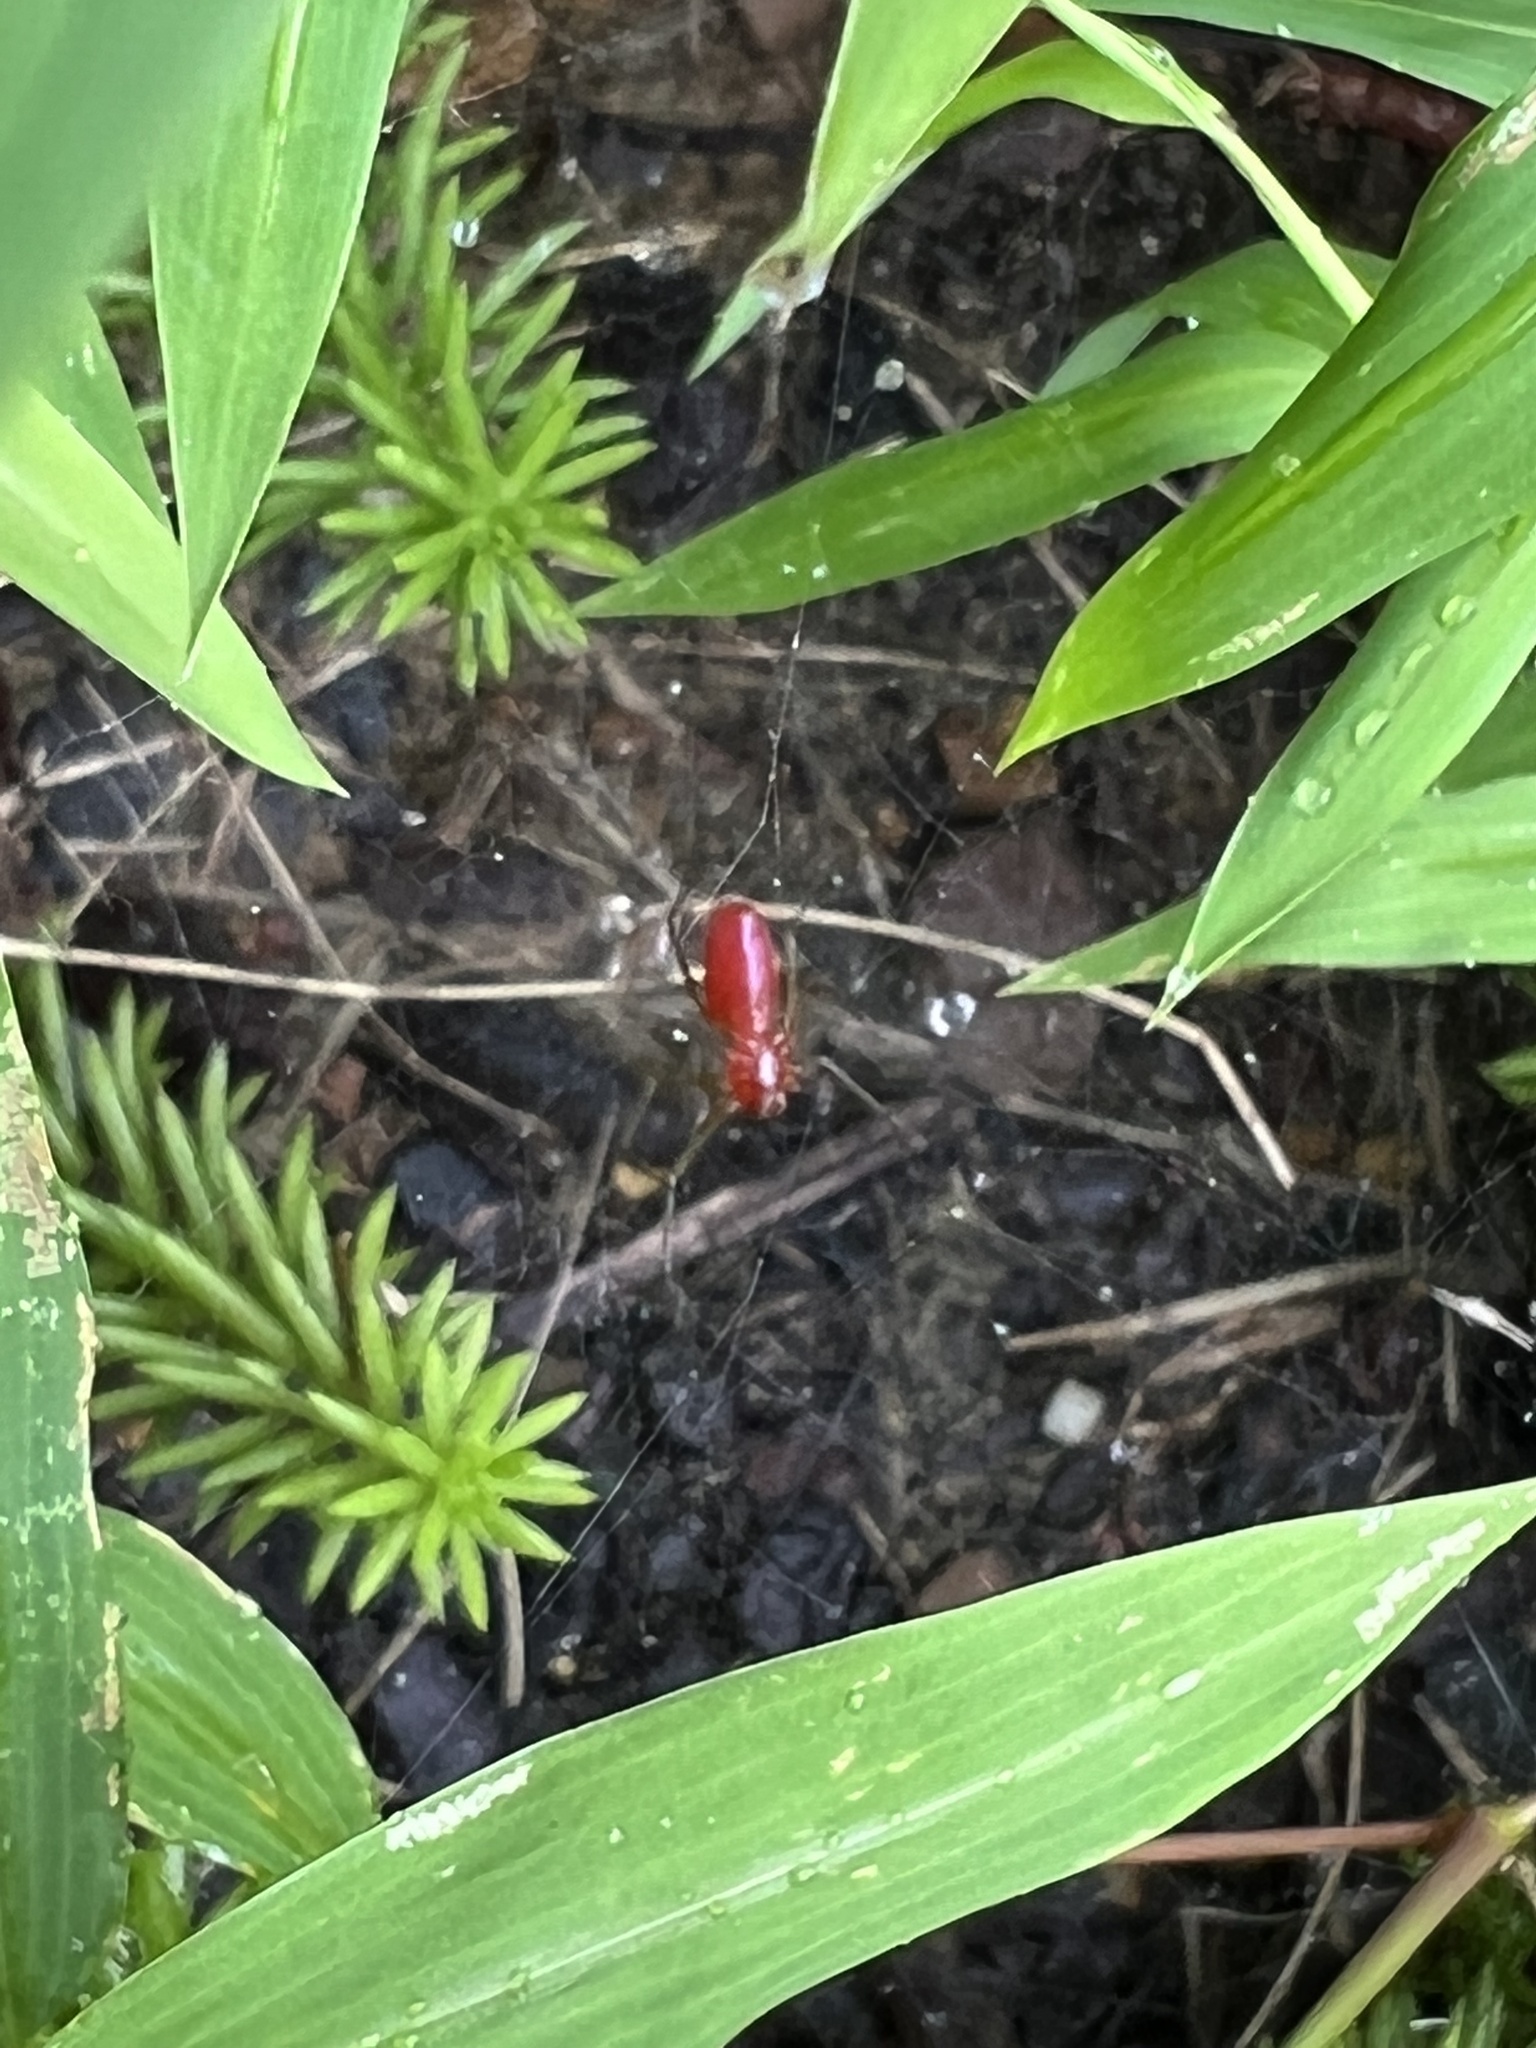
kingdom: Animalia
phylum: Arthropoda
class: Arachnida
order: Araneae
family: Linyphiidae
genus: Florinda
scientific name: Florinda coccinea
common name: Black-tailed red sheetweaver
